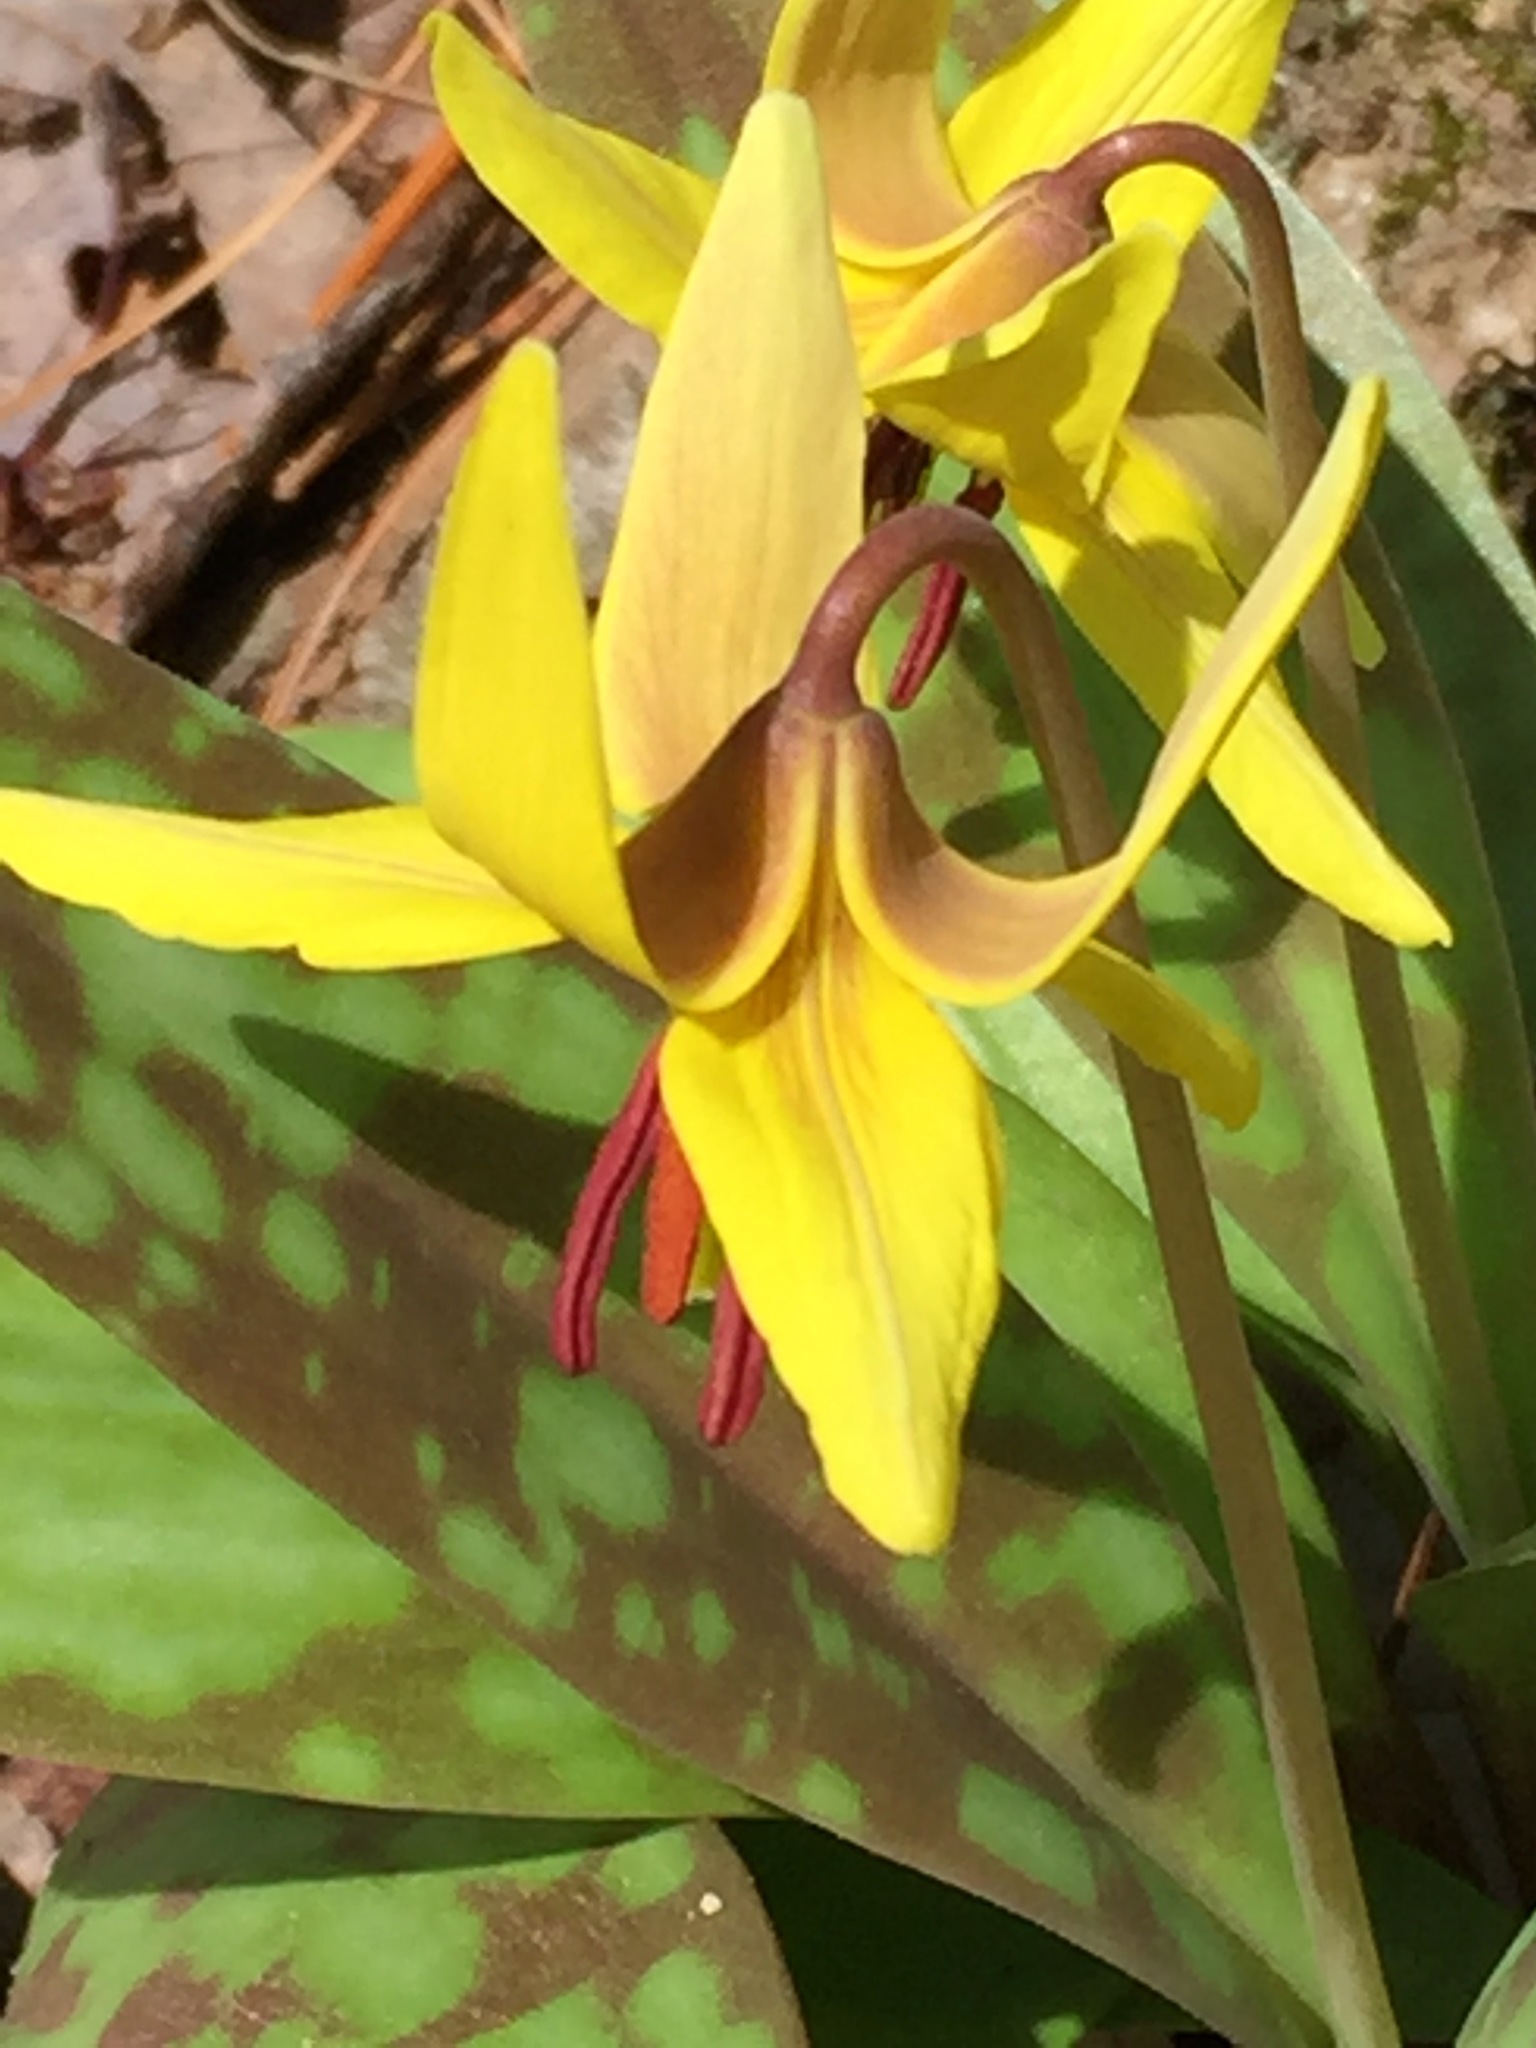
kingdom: Plantae
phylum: Tracheophyta
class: Liliopsida
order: Liliales
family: Liliaceae
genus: Erythronium
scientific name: Erythronium americanum
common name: Yellow adder's-tongue
